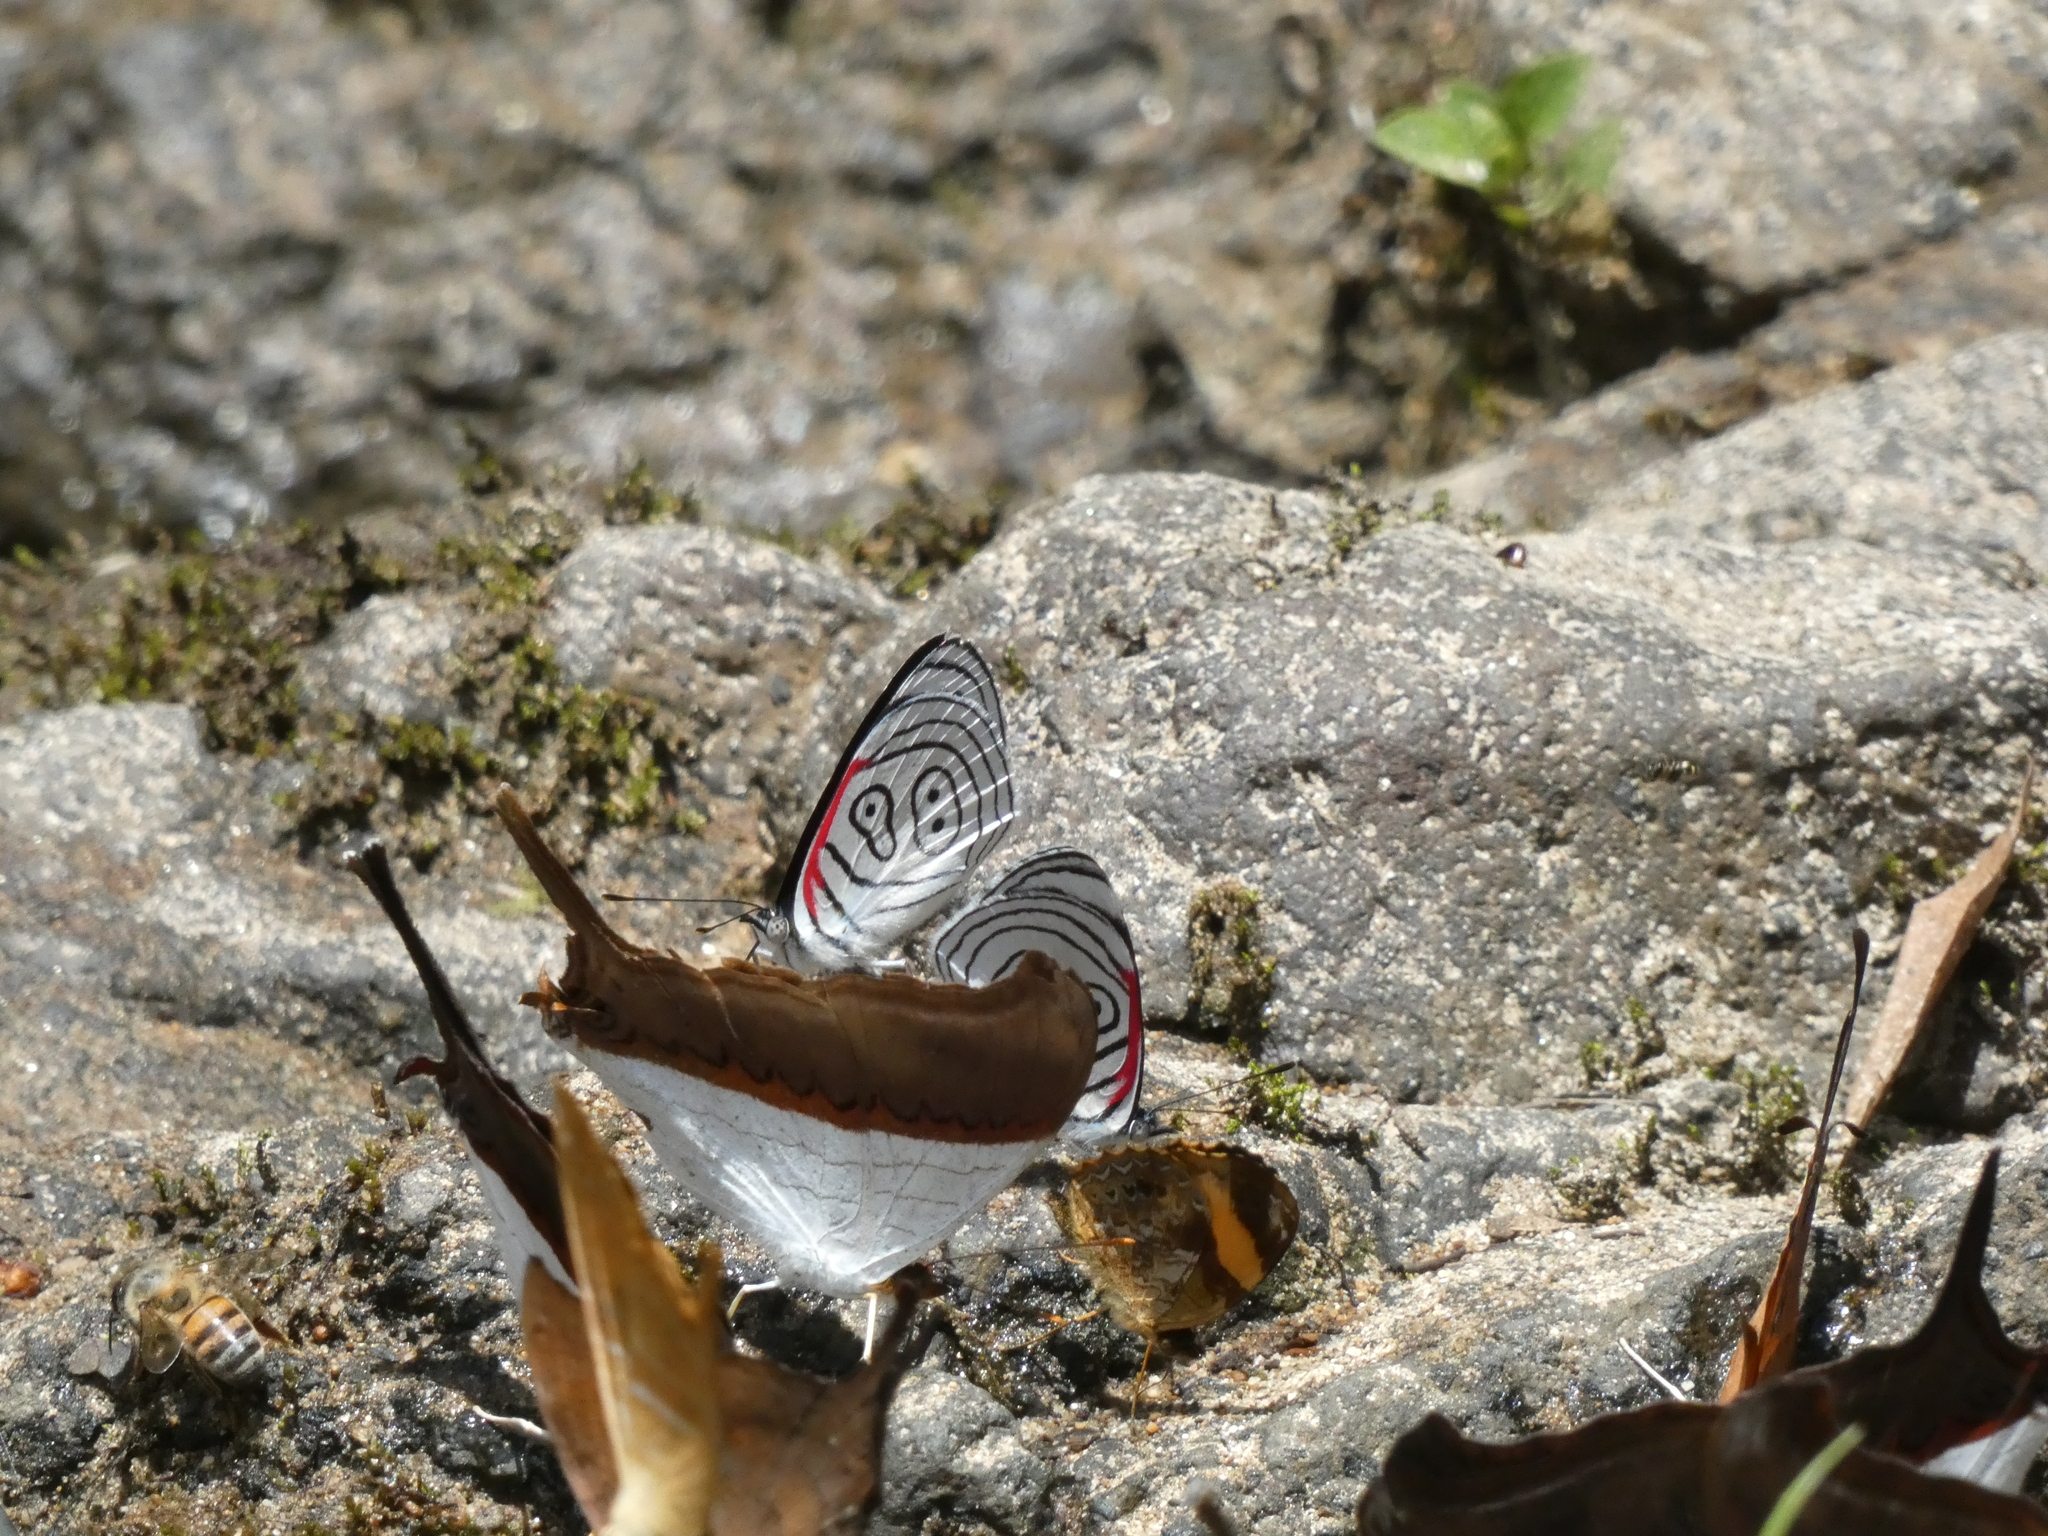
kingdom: Animalia
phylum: Arthropoda
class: Insecta
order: Lepidoptera
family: Nymphalidae
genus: Diaethria
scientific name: Diaethria neglecta
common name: Neglected eighty-eight
